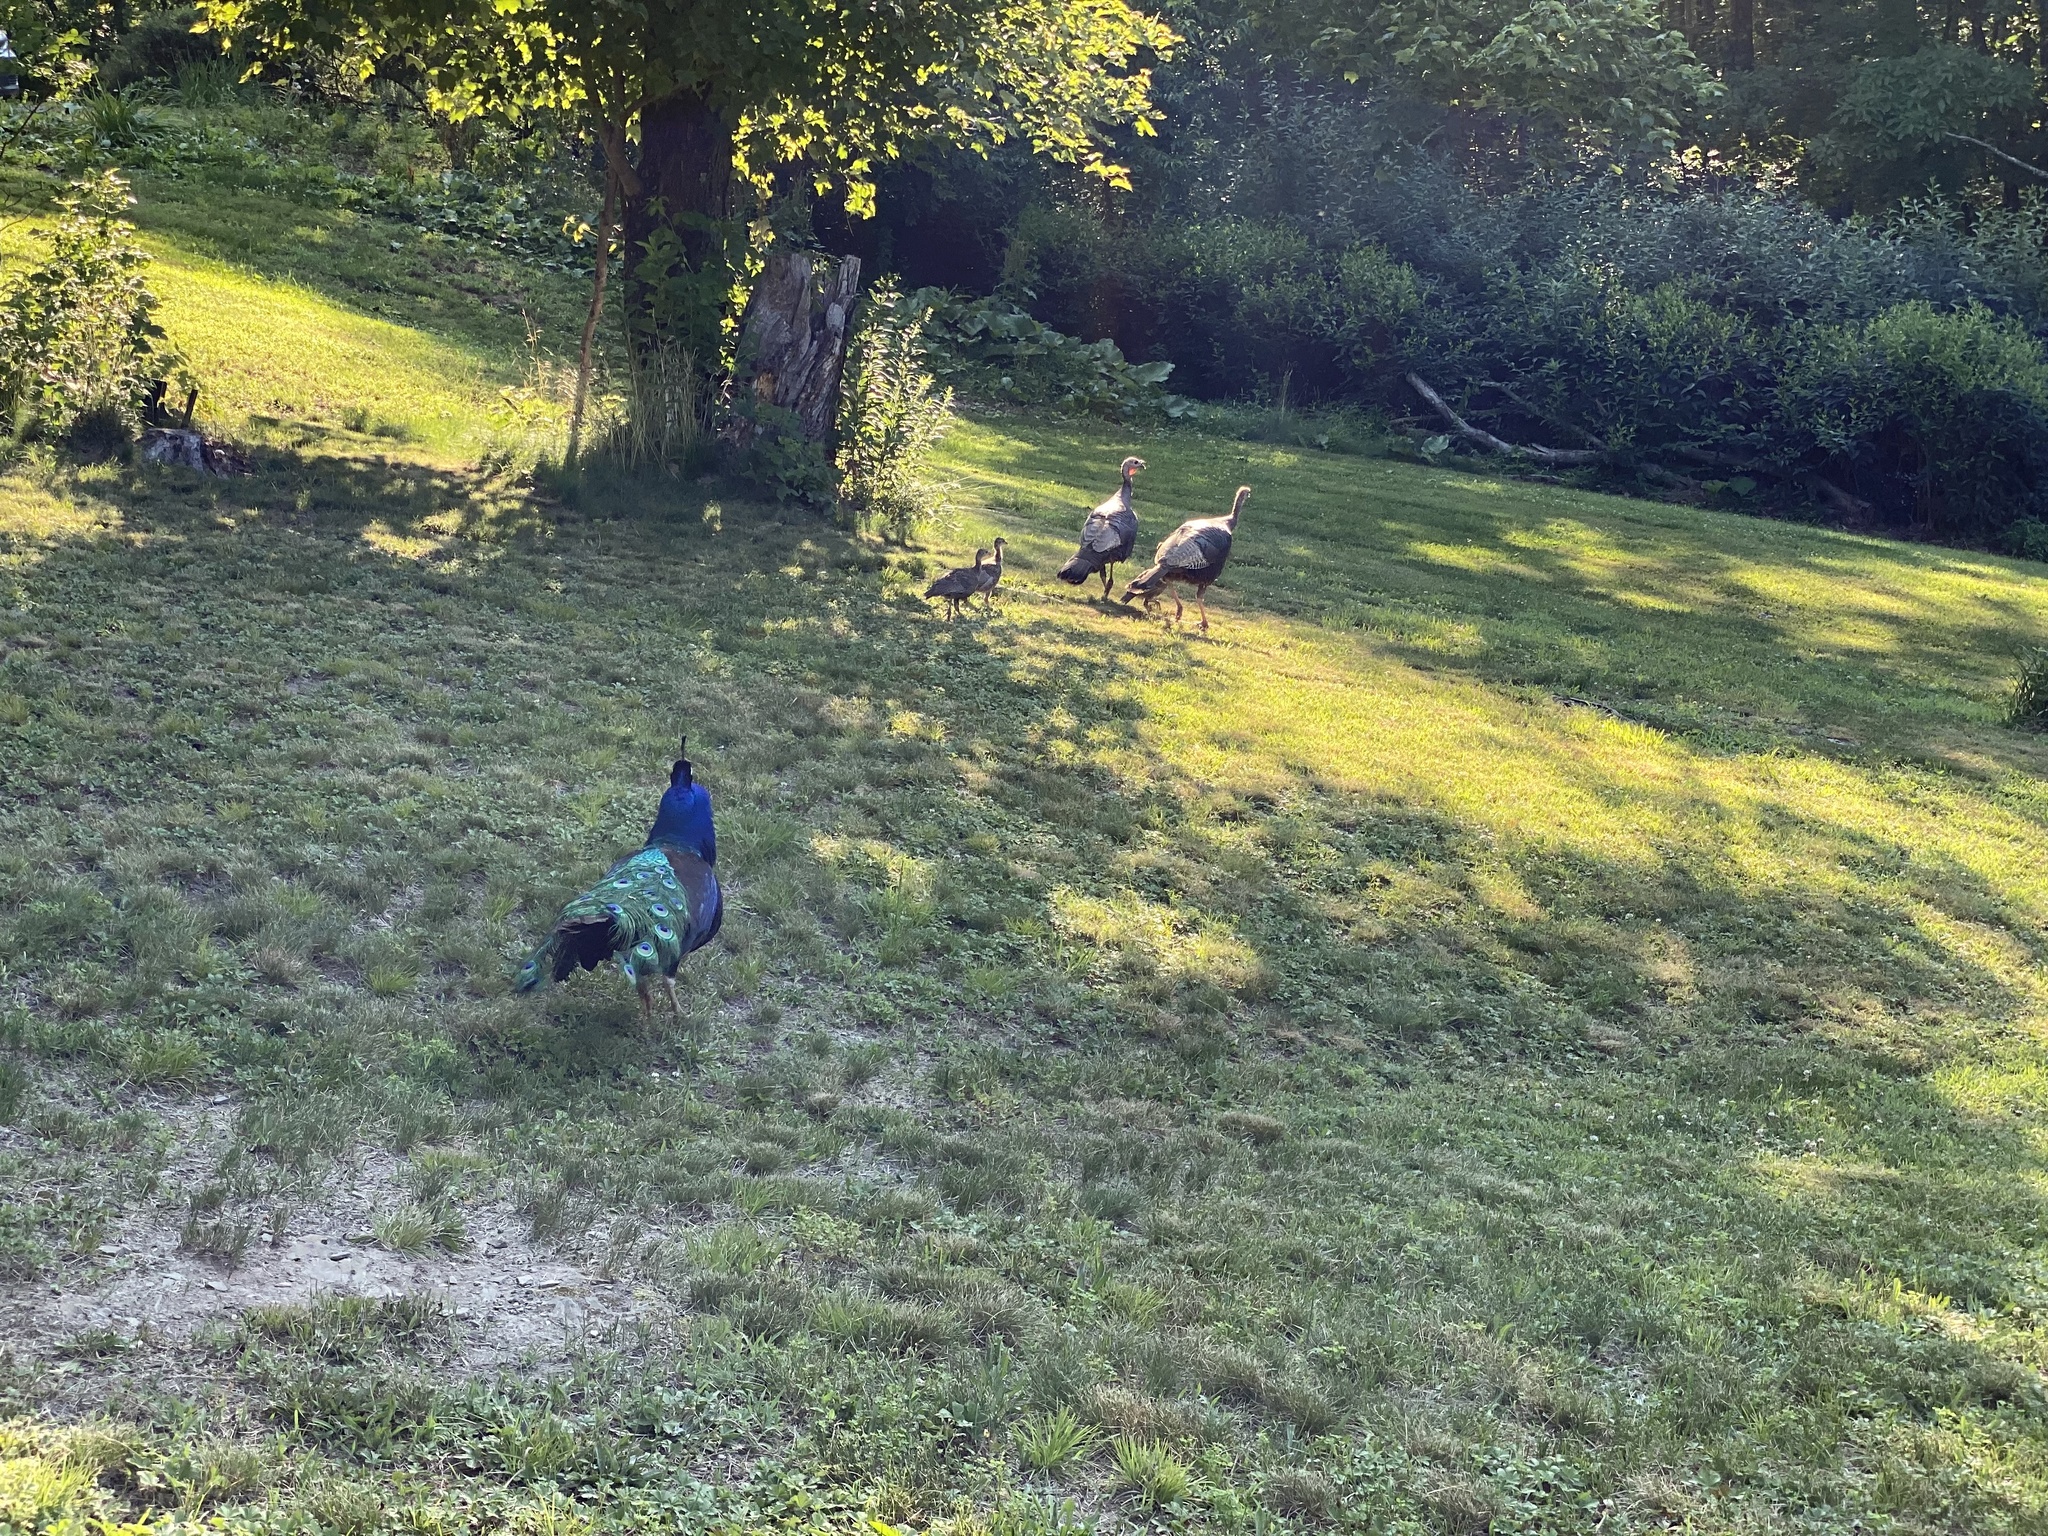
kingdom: Animalia
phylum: Chordata
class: Aves
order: Galliformes
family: Phasianidae
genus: Meleagris
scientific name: Meleagris gallopavo
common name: Wild turkey
